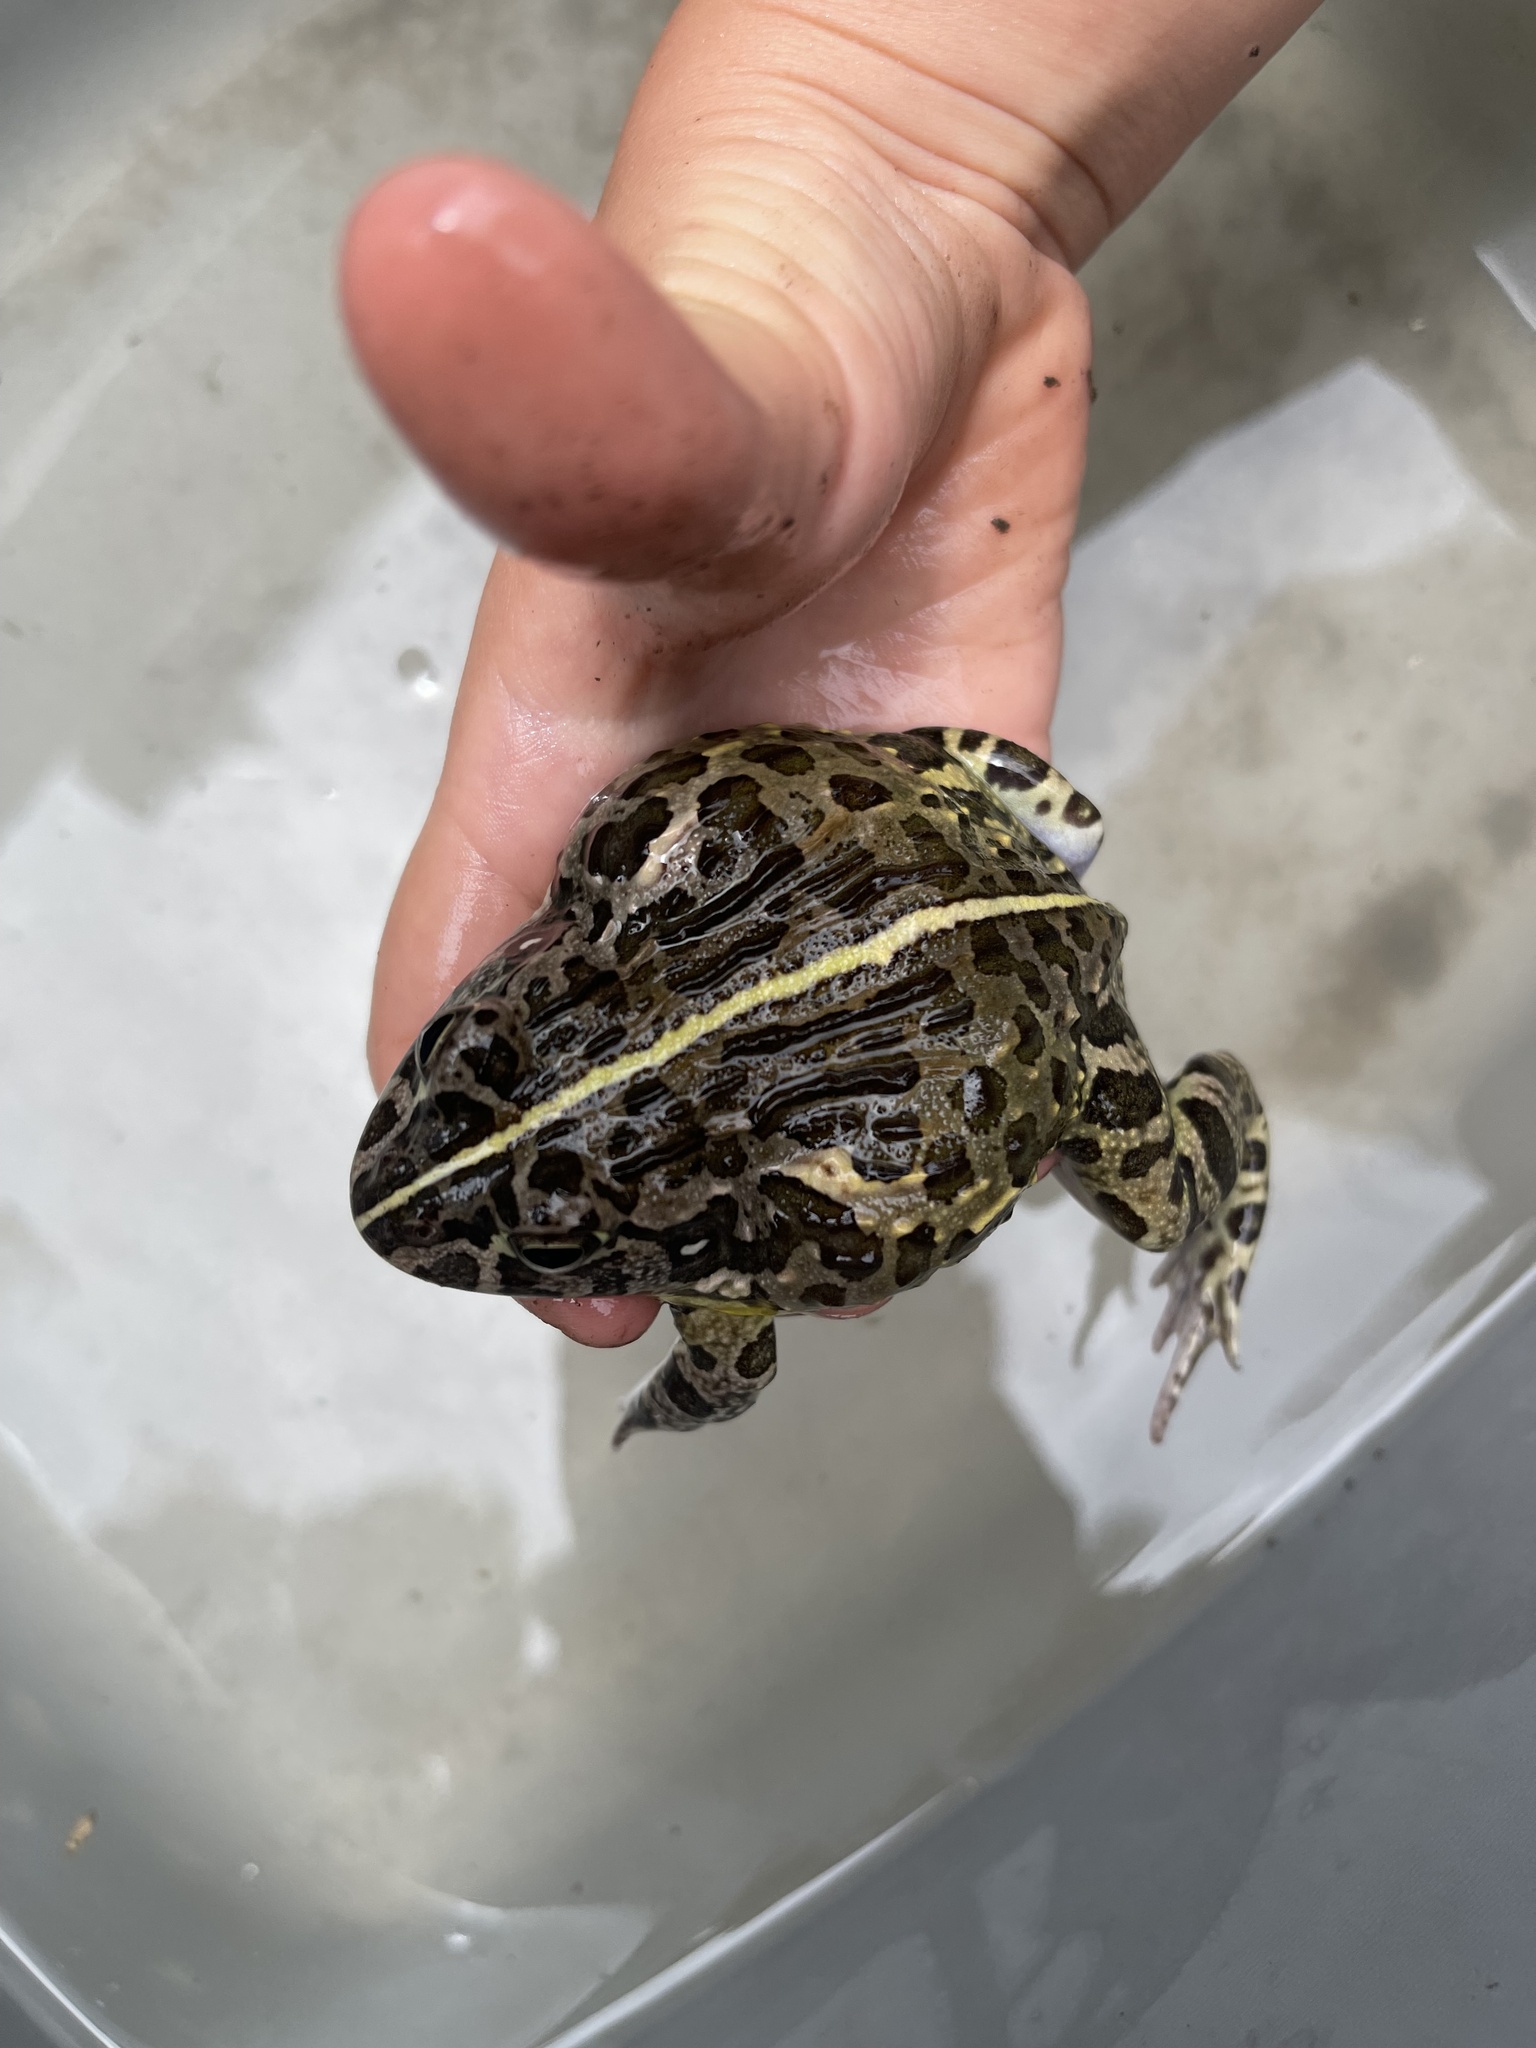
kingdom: Animalia
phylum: Chordata
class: Amphibia
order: Anura
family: Pyxicephalidae
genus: Pyxicephalus
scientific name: Pyxicephalus edulis
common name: Peter's bullfrog
